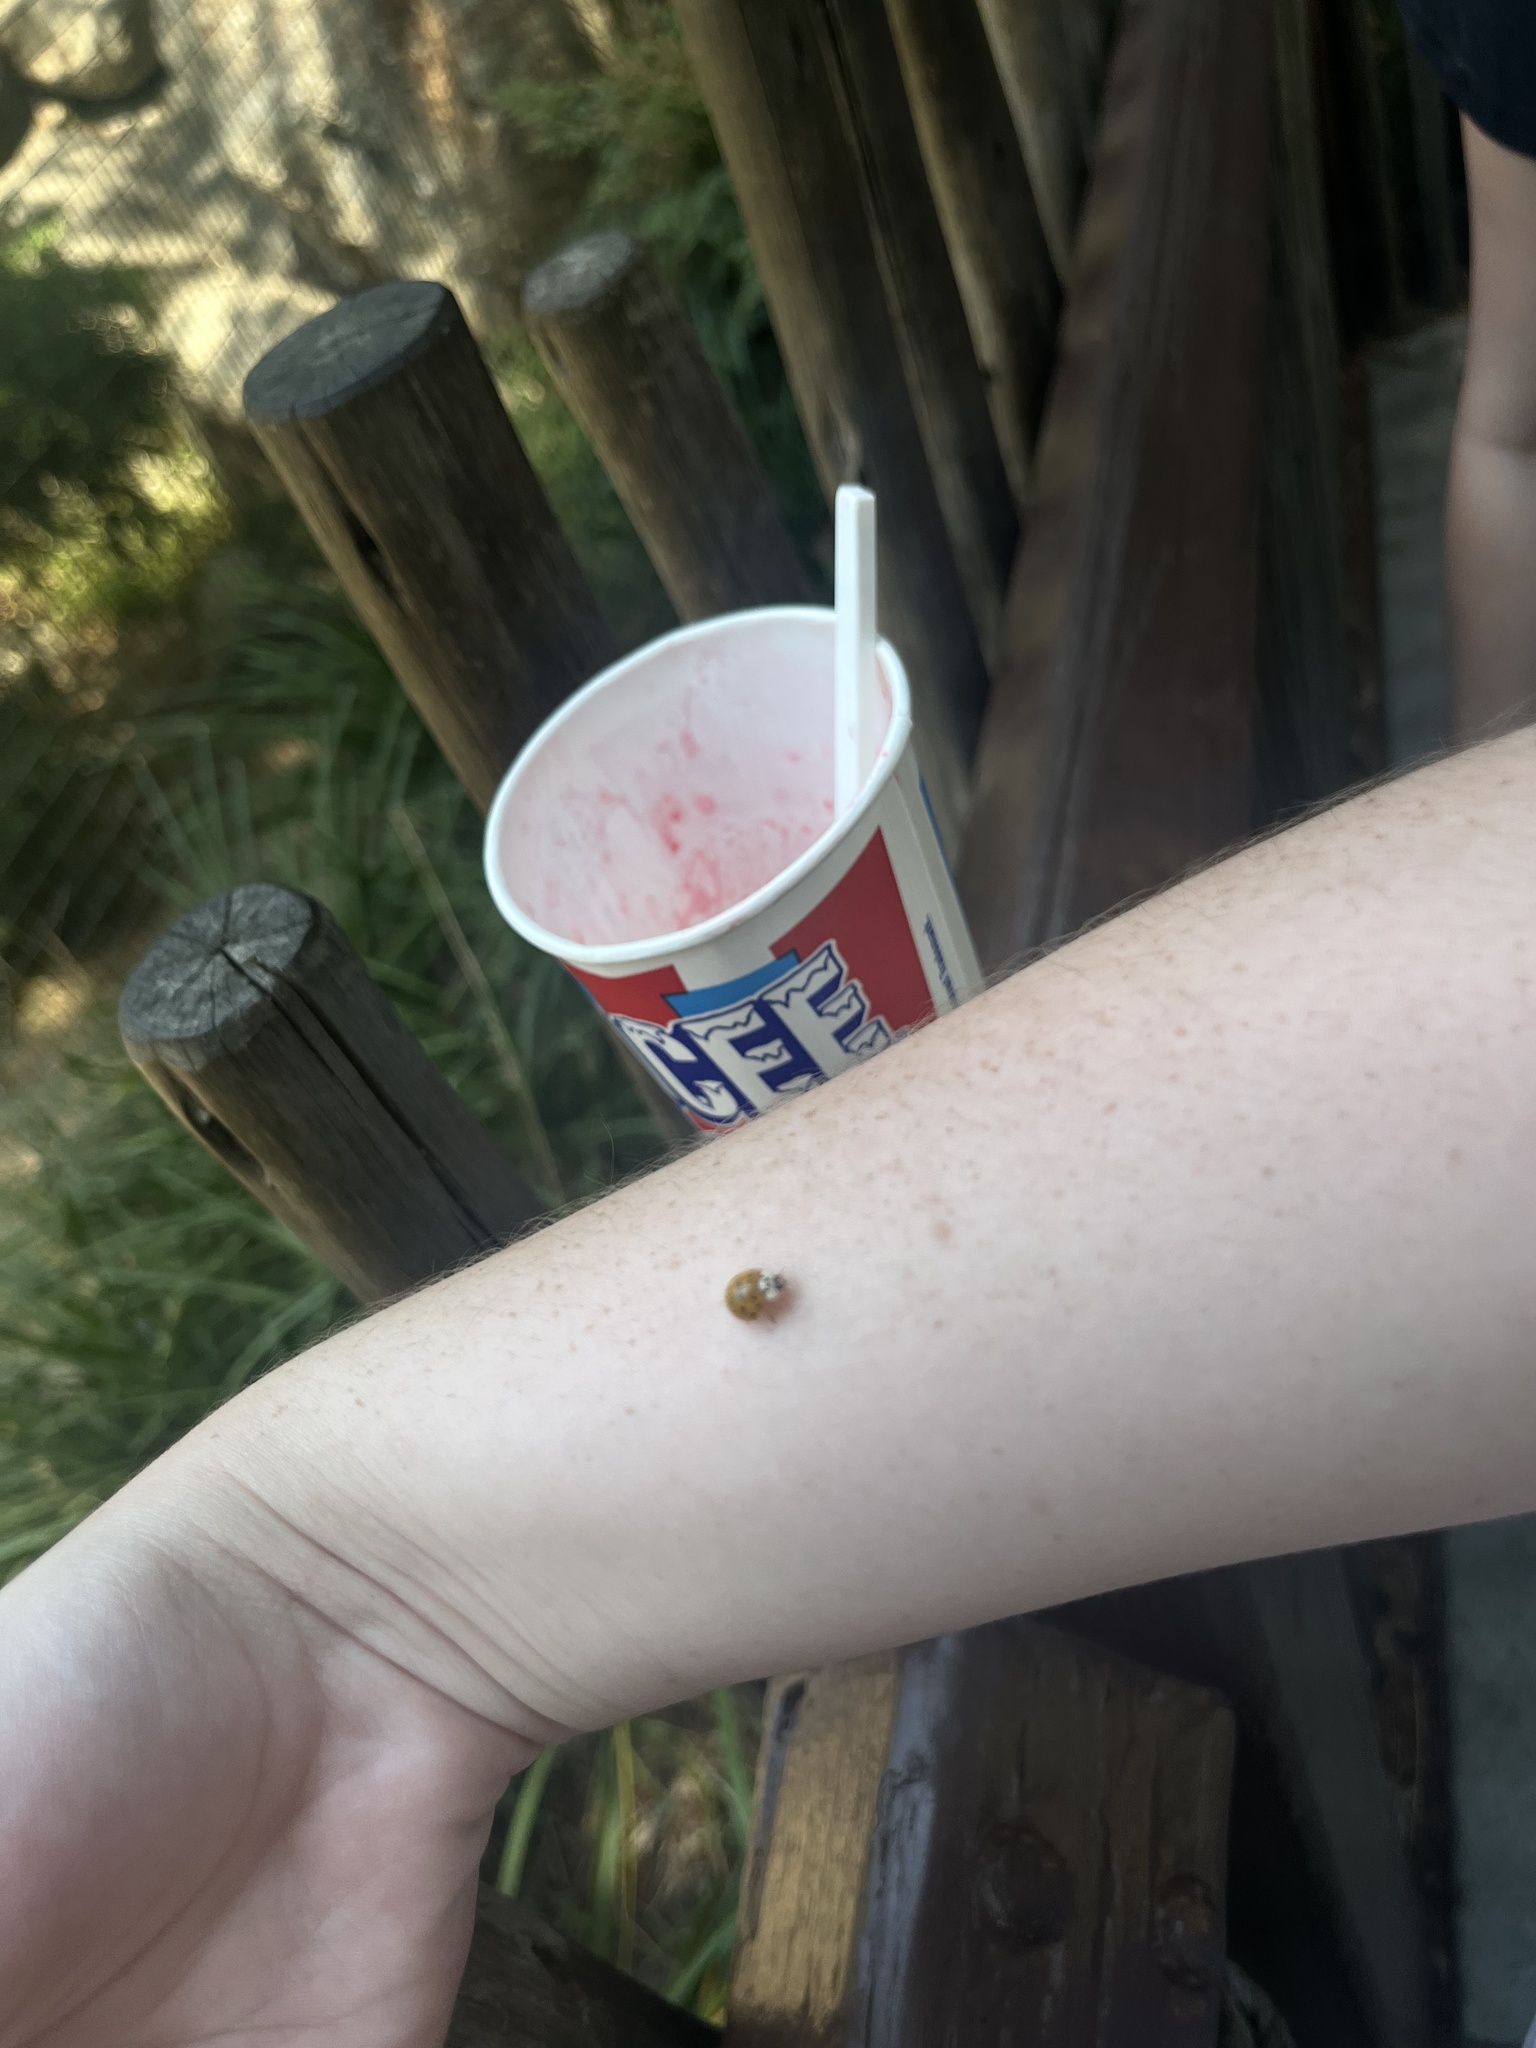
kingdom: Animalia
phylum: Arthropoda
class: Insecta
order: Coleoptera
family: Coccinellidae
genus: Harmonia
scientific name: Harmonia axyridis
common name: Harlequin ladybird
